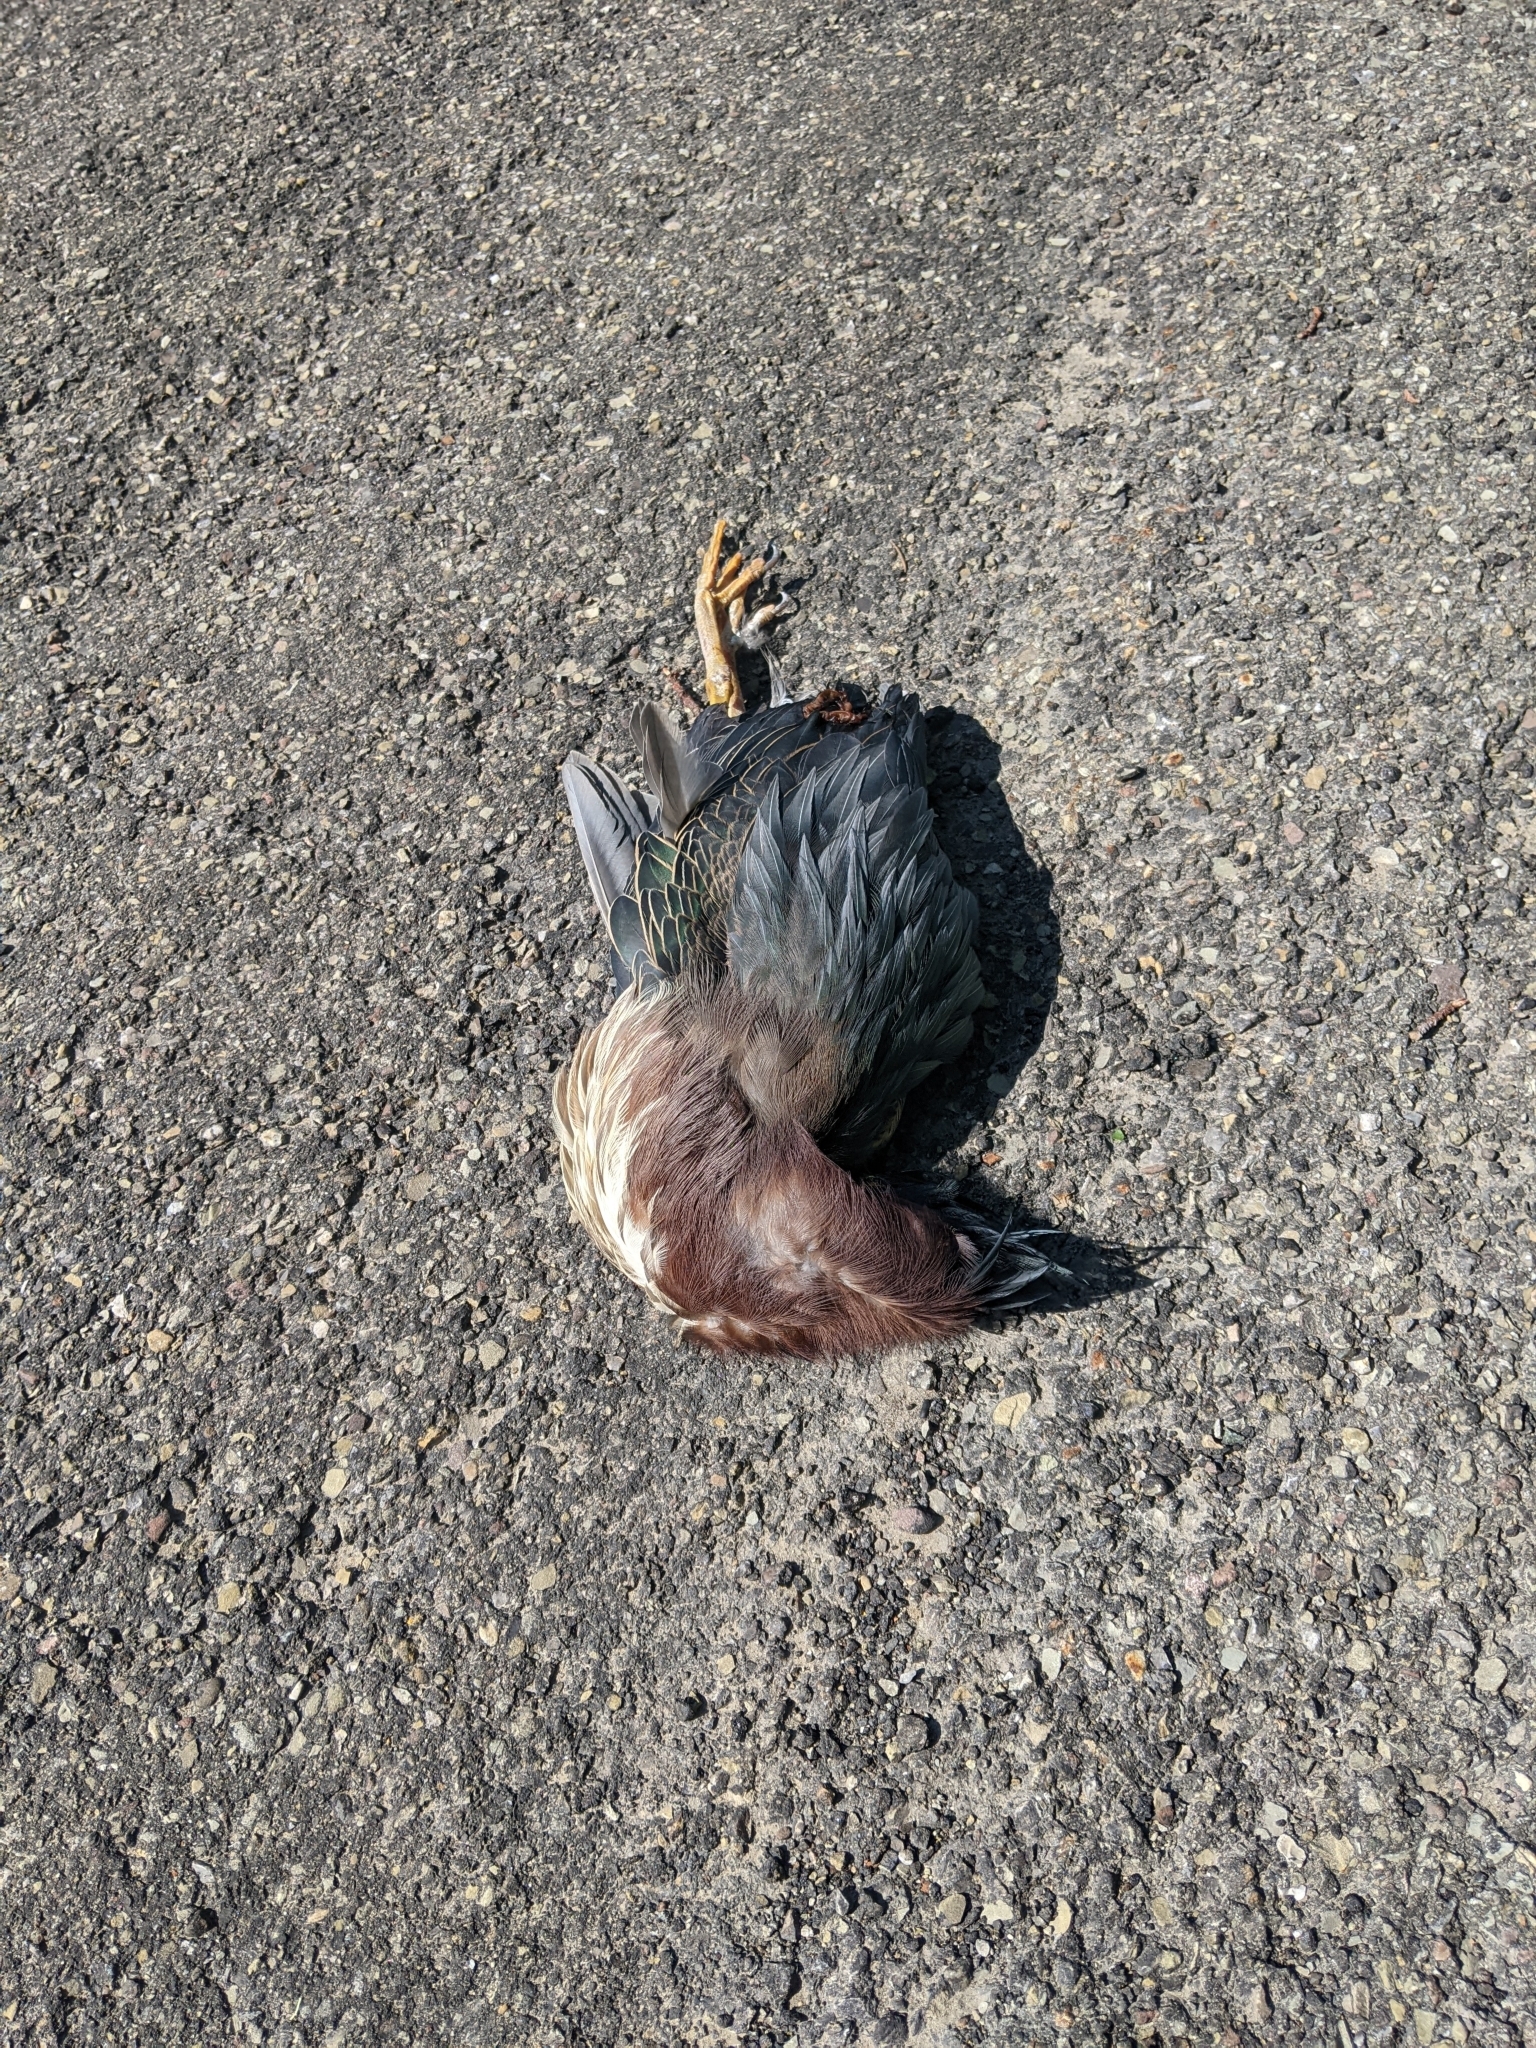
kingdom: Animalia
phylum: Chordata
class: Aves
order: Pelecaniformes
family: Ardeidae
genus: Butorides
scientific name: Butorides virescens
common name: Green heron
